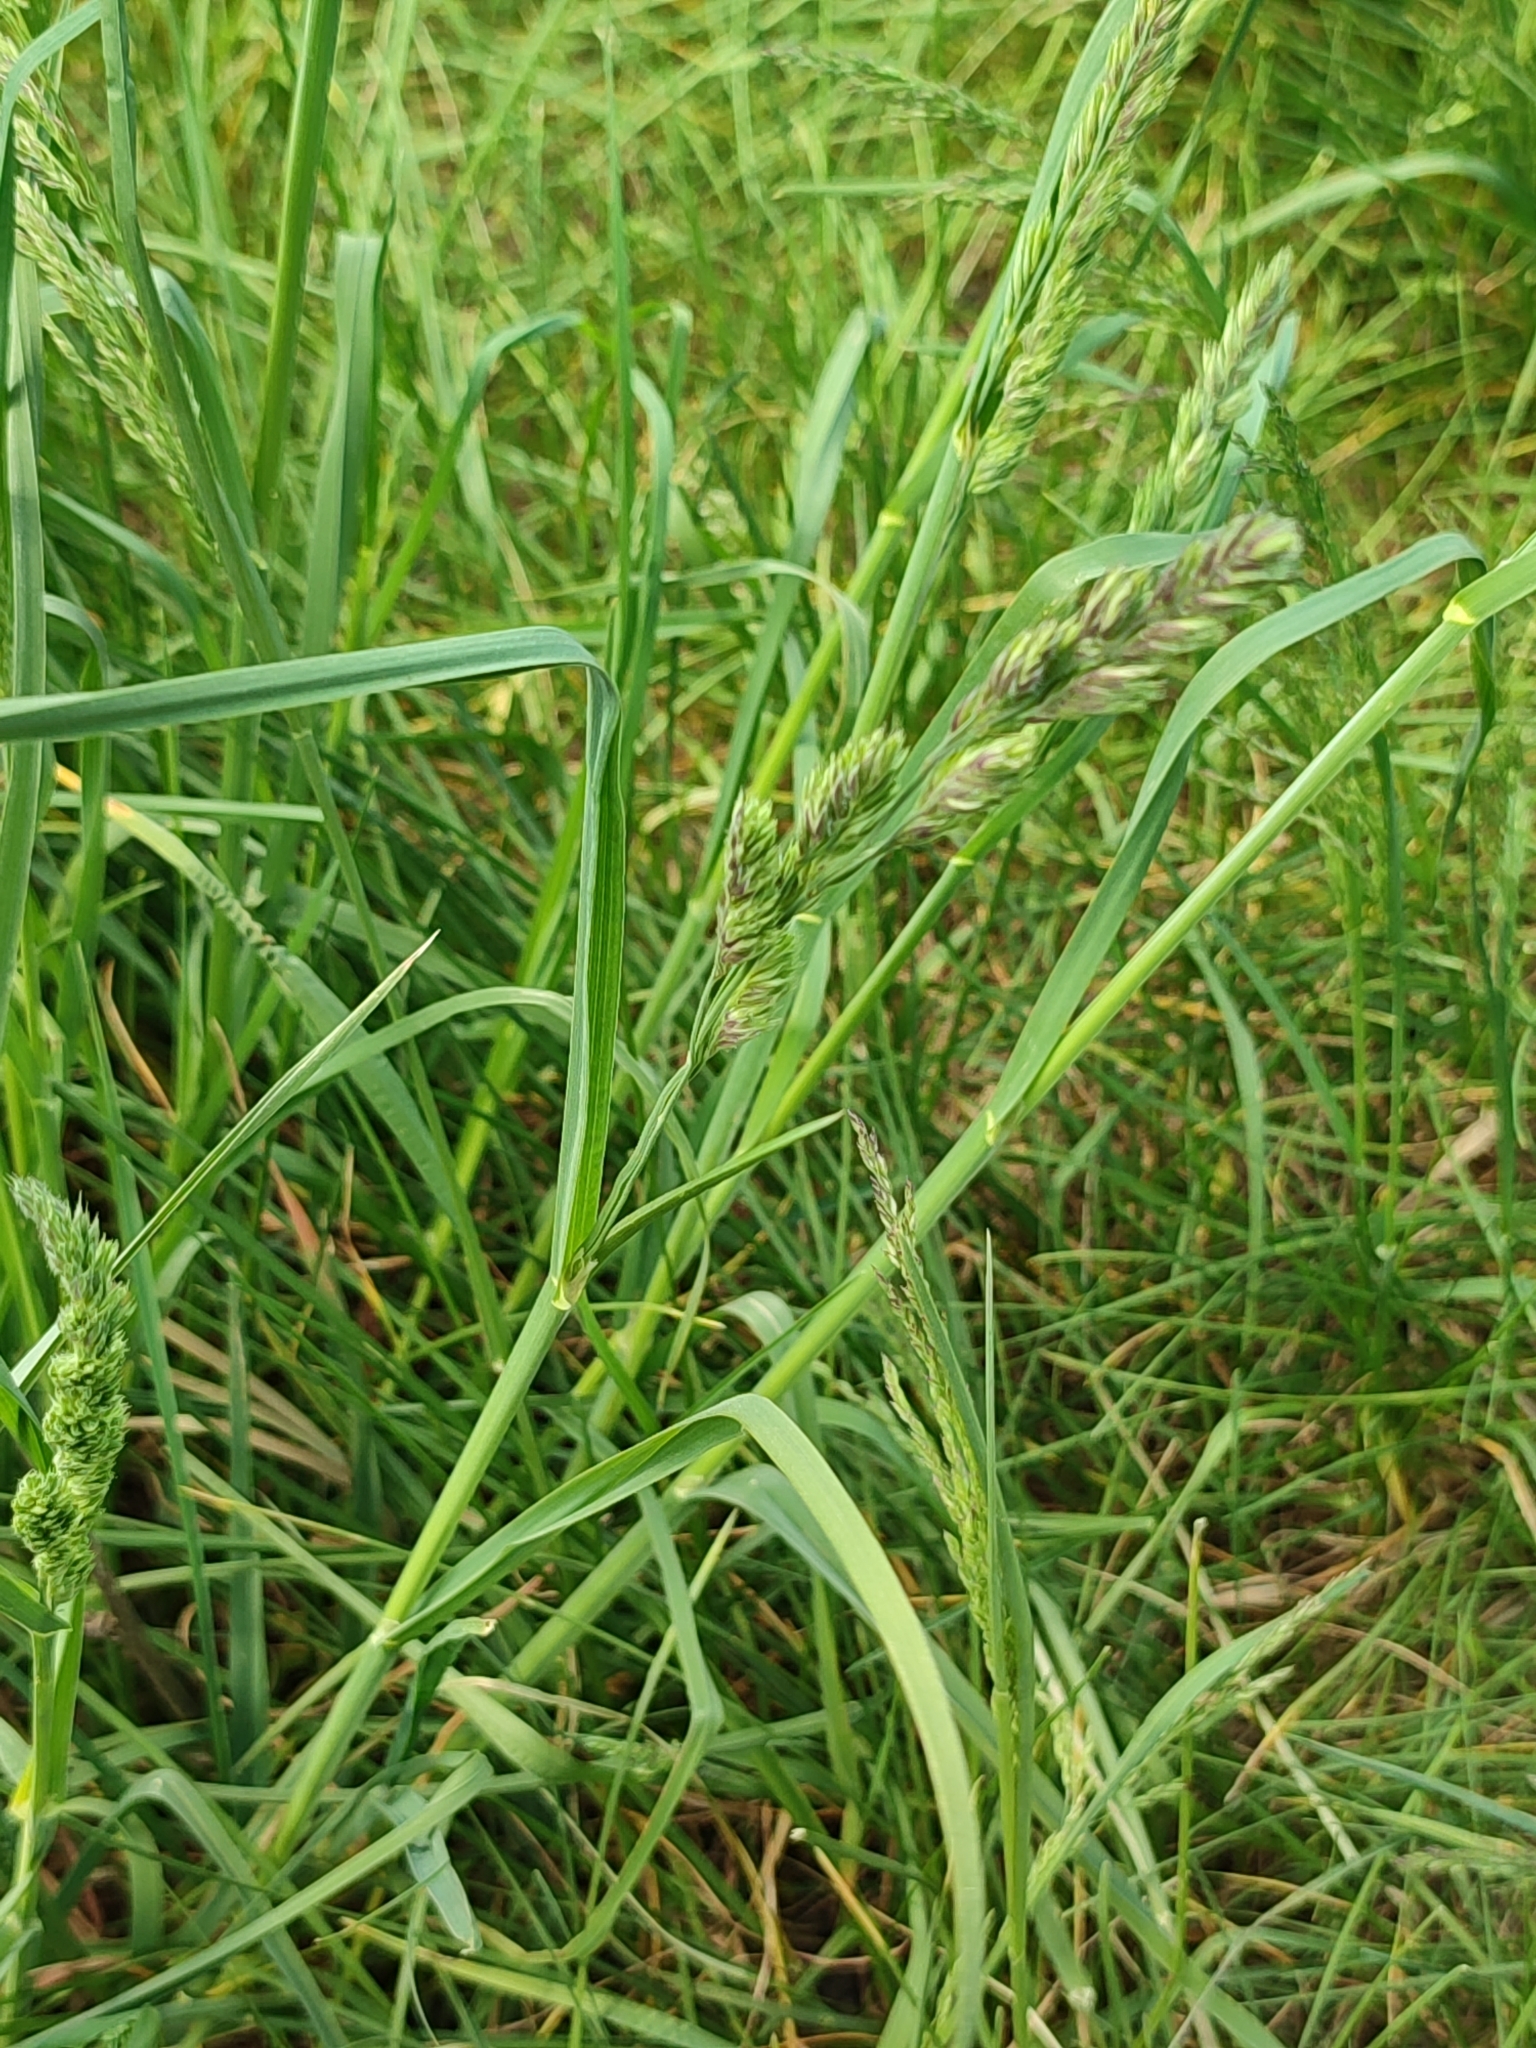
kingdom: Plantae
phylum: Tracheophyta
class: Liliopsida
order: Poales
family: Poaceae
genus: Dactylis
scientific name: Dactylis glomerata
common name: Orchardgrass
